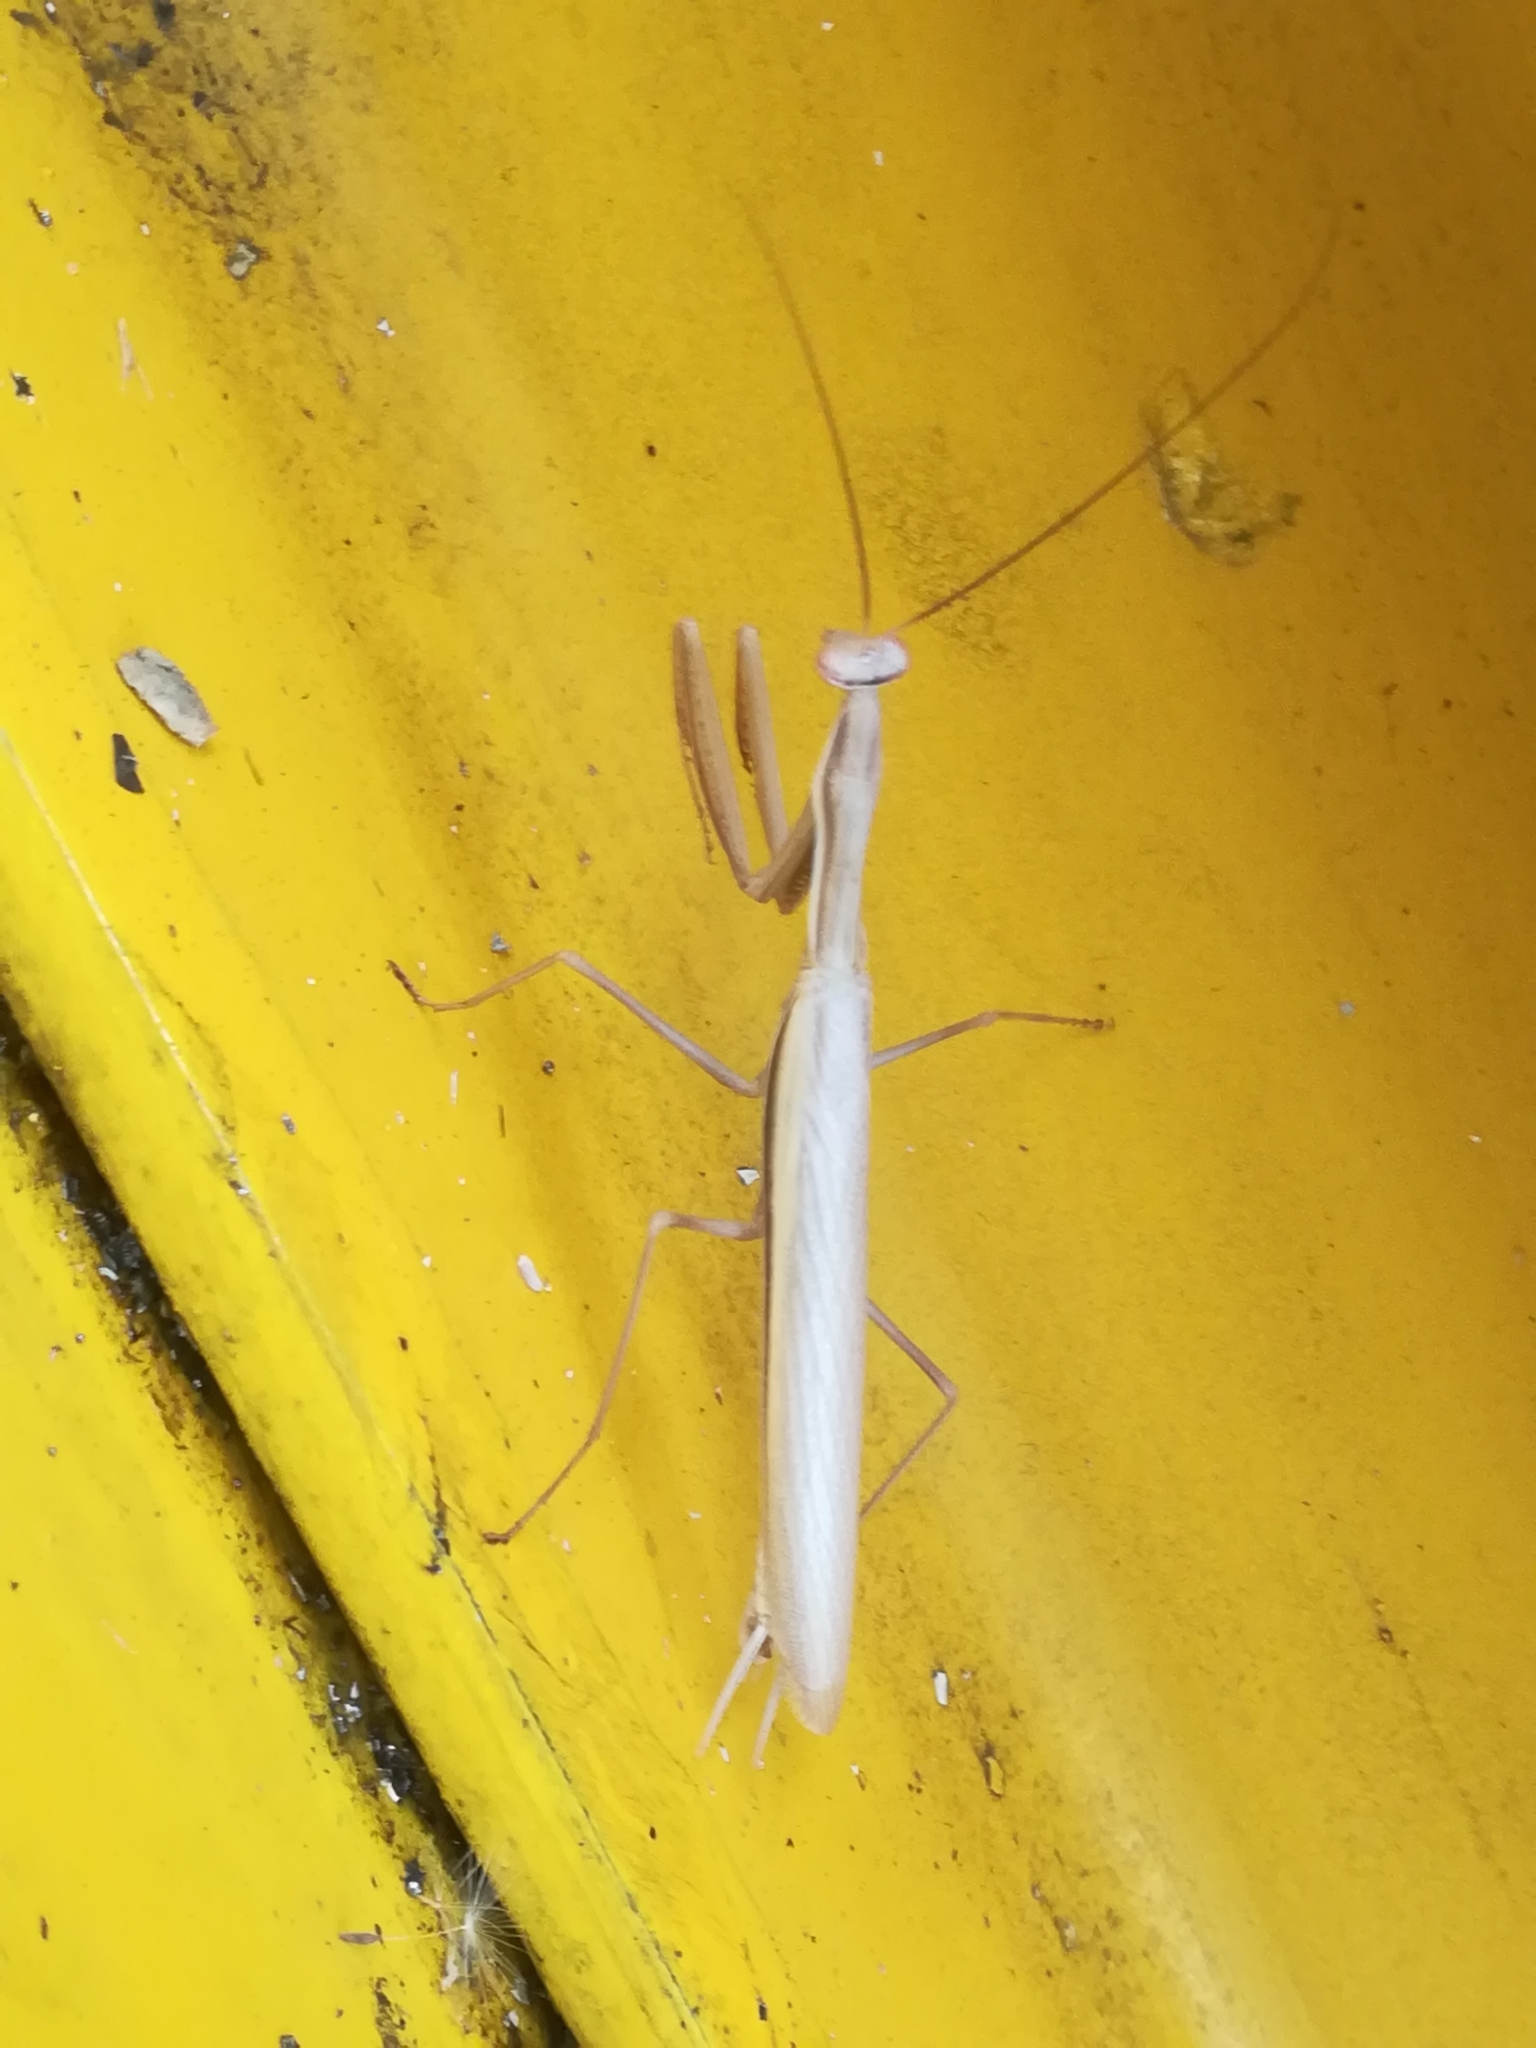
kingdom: Animalia
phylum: Arthropoda
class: Insecta
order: Mantodea
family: Mantidae
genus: Mantis
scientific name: Mantis religiosa
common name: Praying mantis
